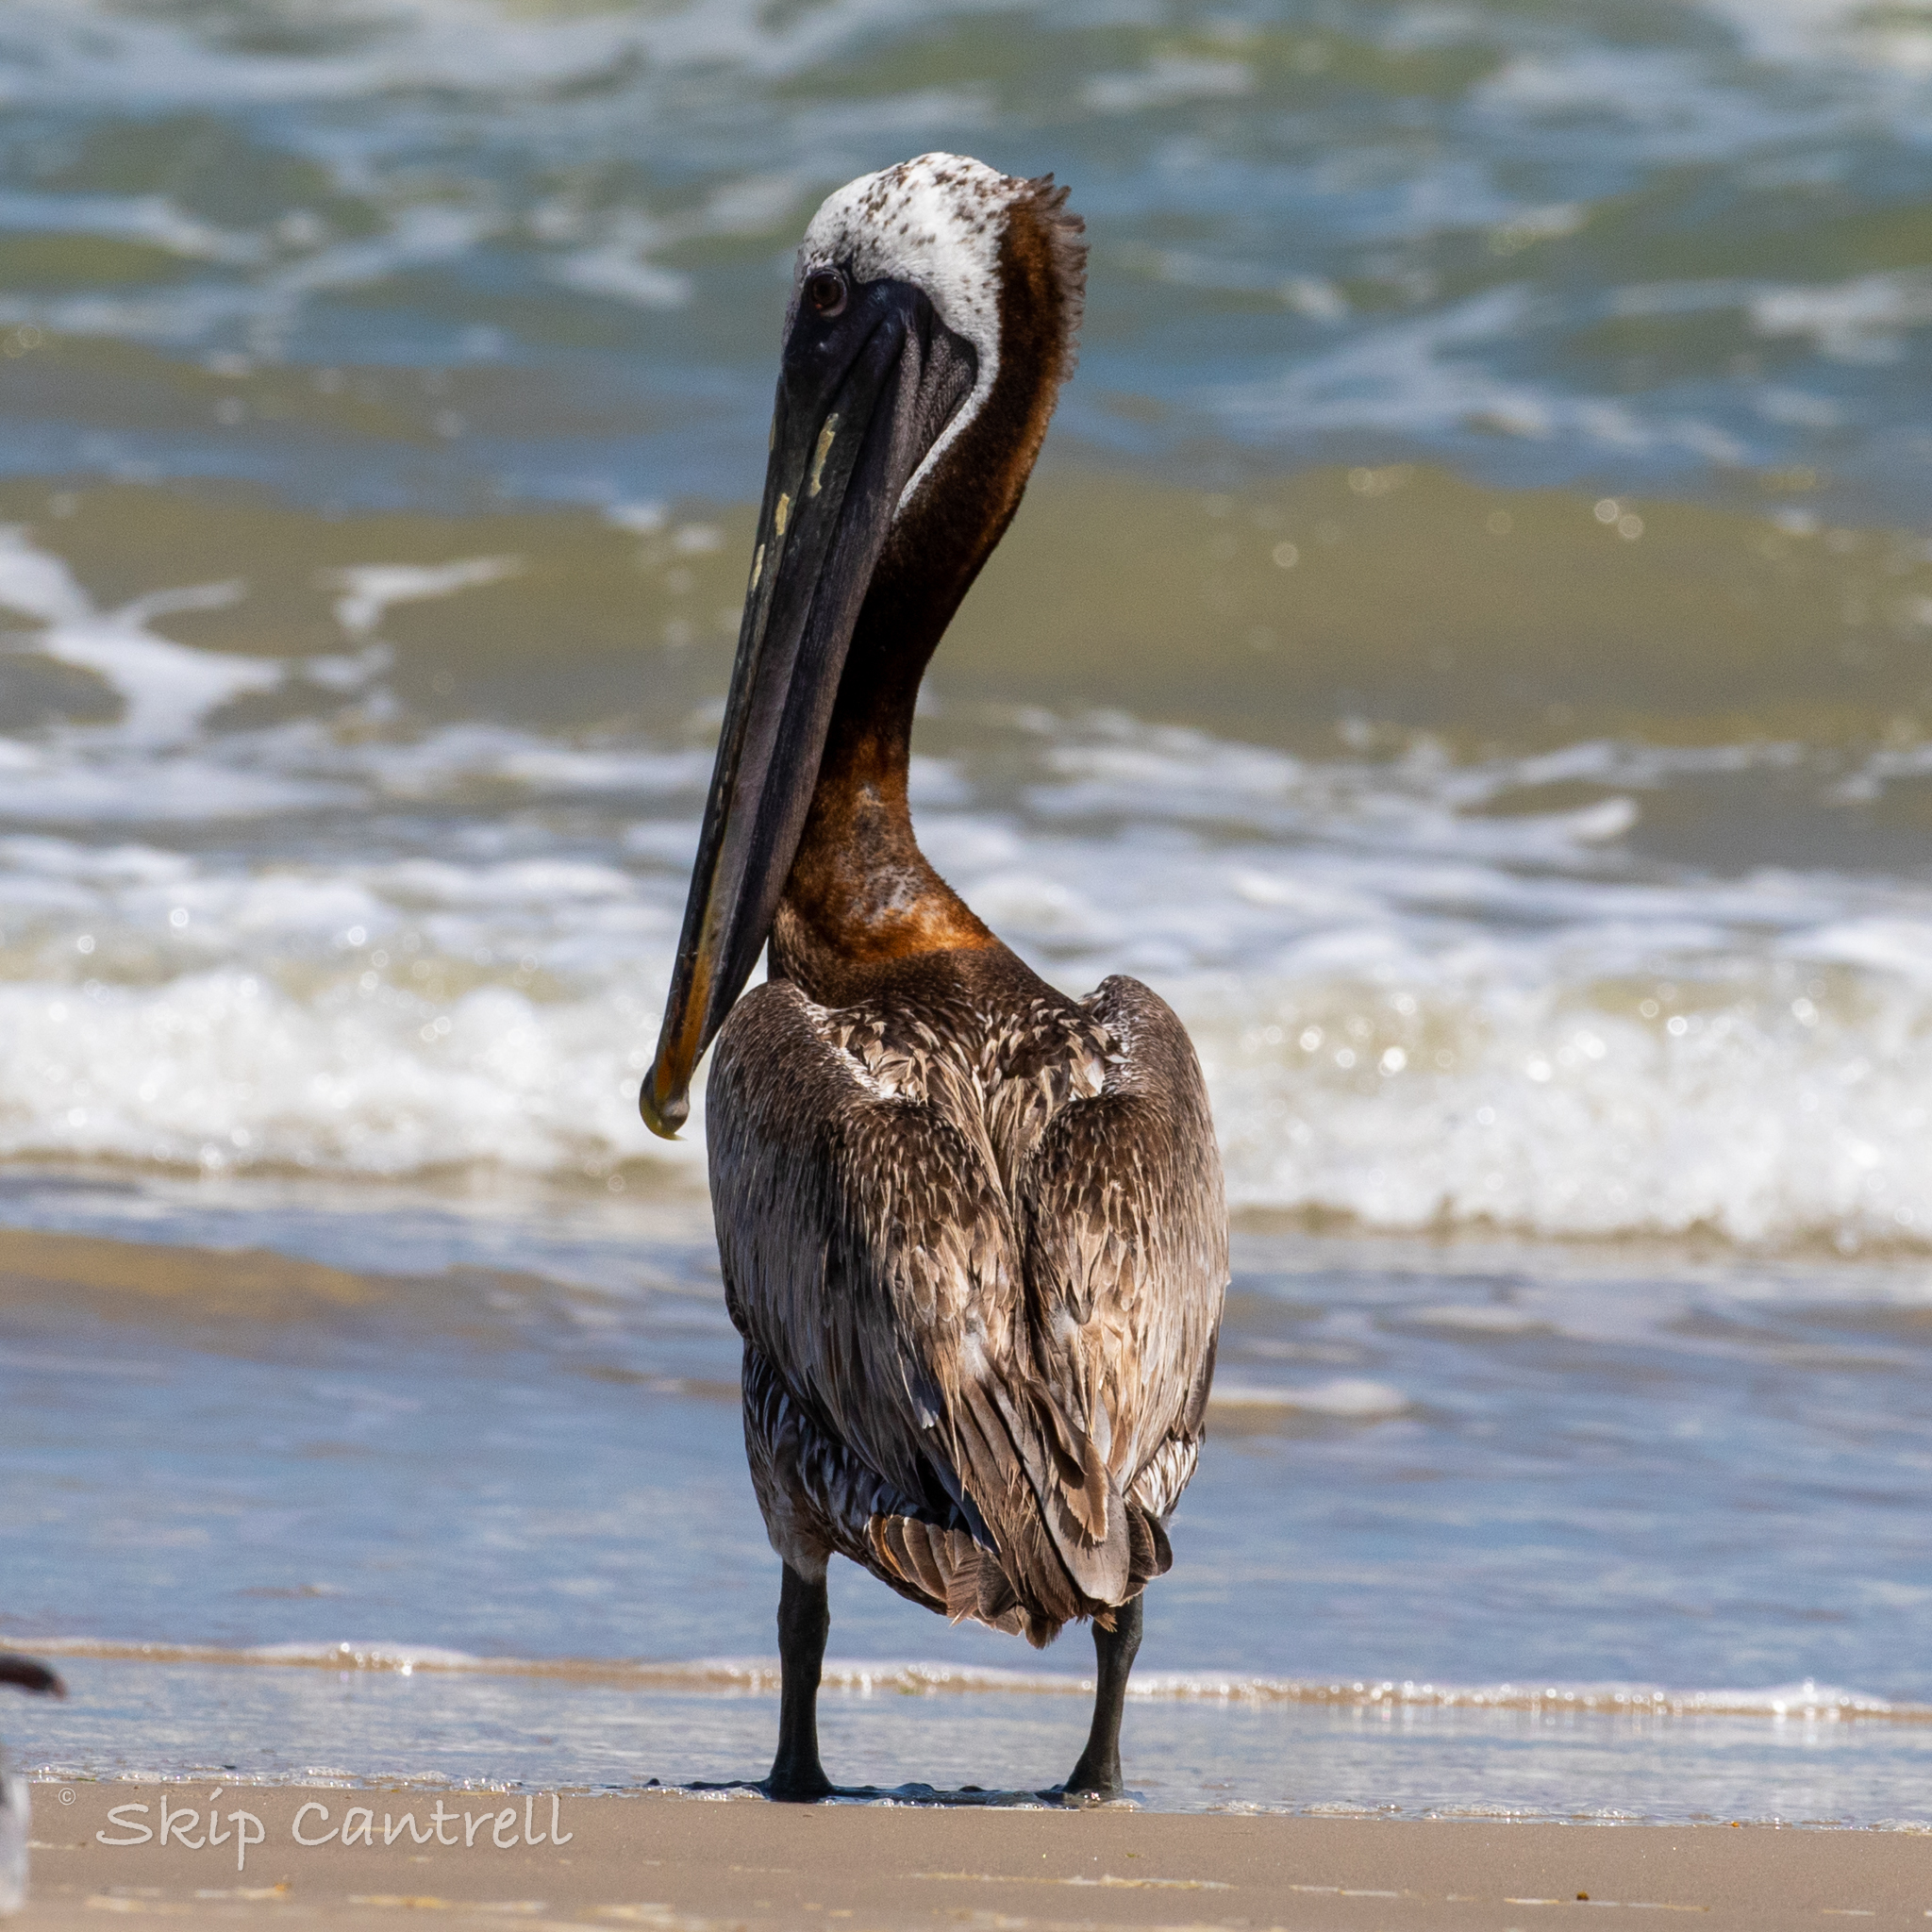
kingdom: Animalia
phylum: Chordata
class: Aves
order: Pelecaniformes
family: Pelecanidae
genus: Pelecanus
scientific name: Pelecanus occidentalis
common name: Brown pelican
